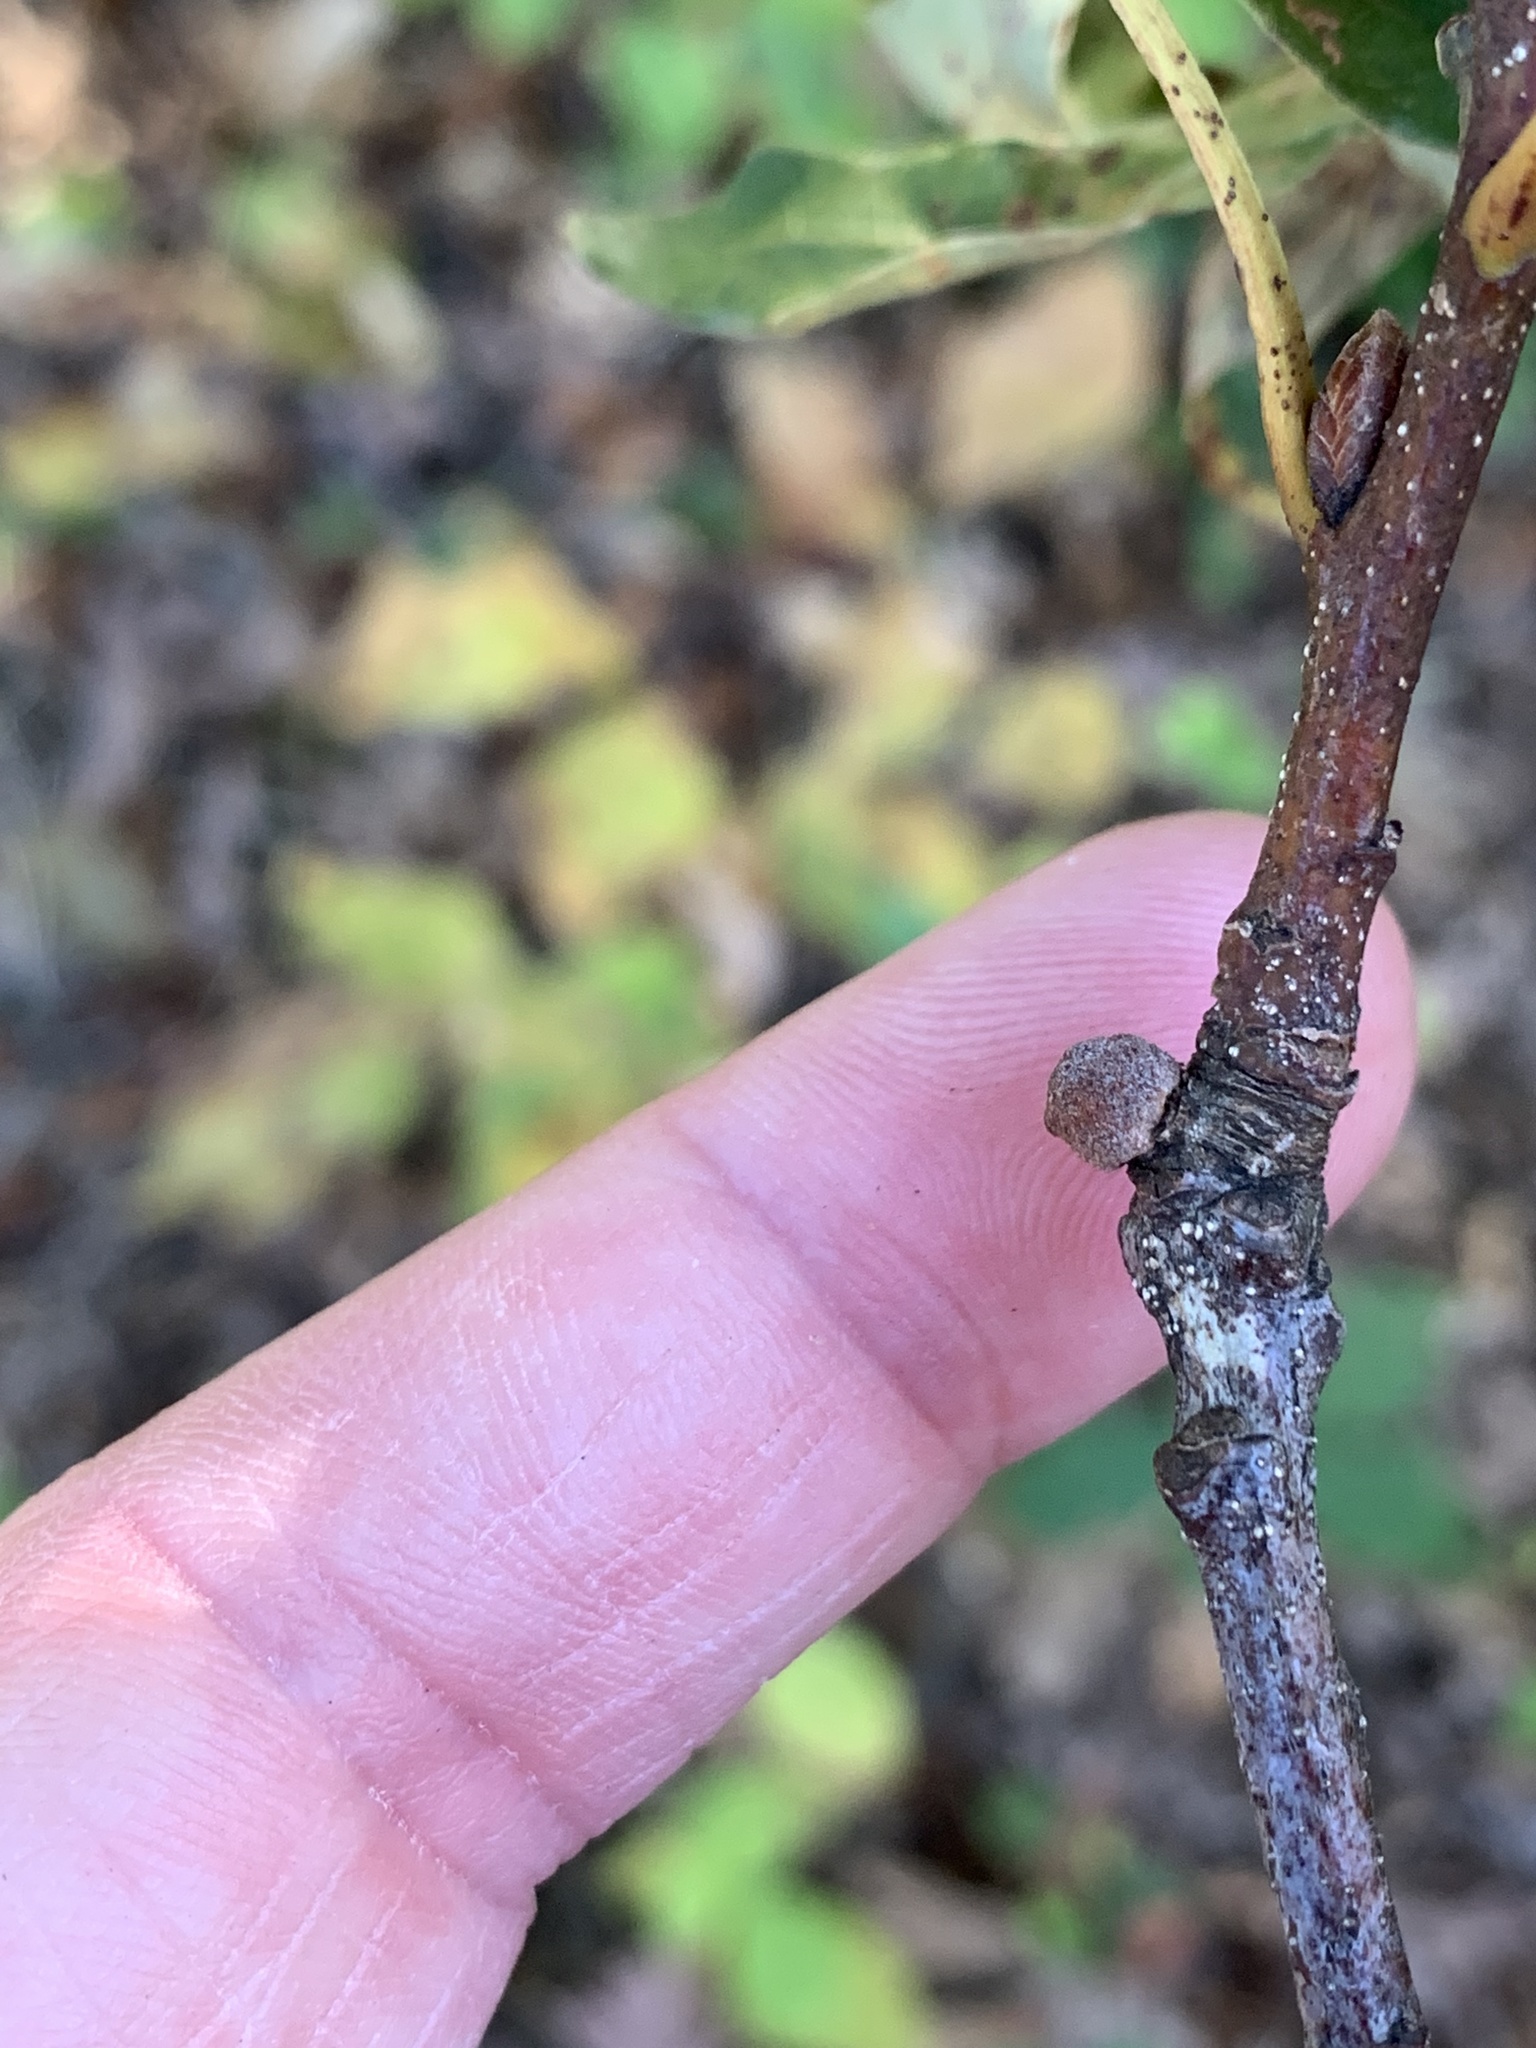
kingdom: Animalia
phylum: Arthropoda
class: Insecta
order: Hymenoptera
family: Cynipidae
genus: Disholcaspis
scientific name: Disholcaspis quercusglobulus
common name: Round bullet gall wasp
